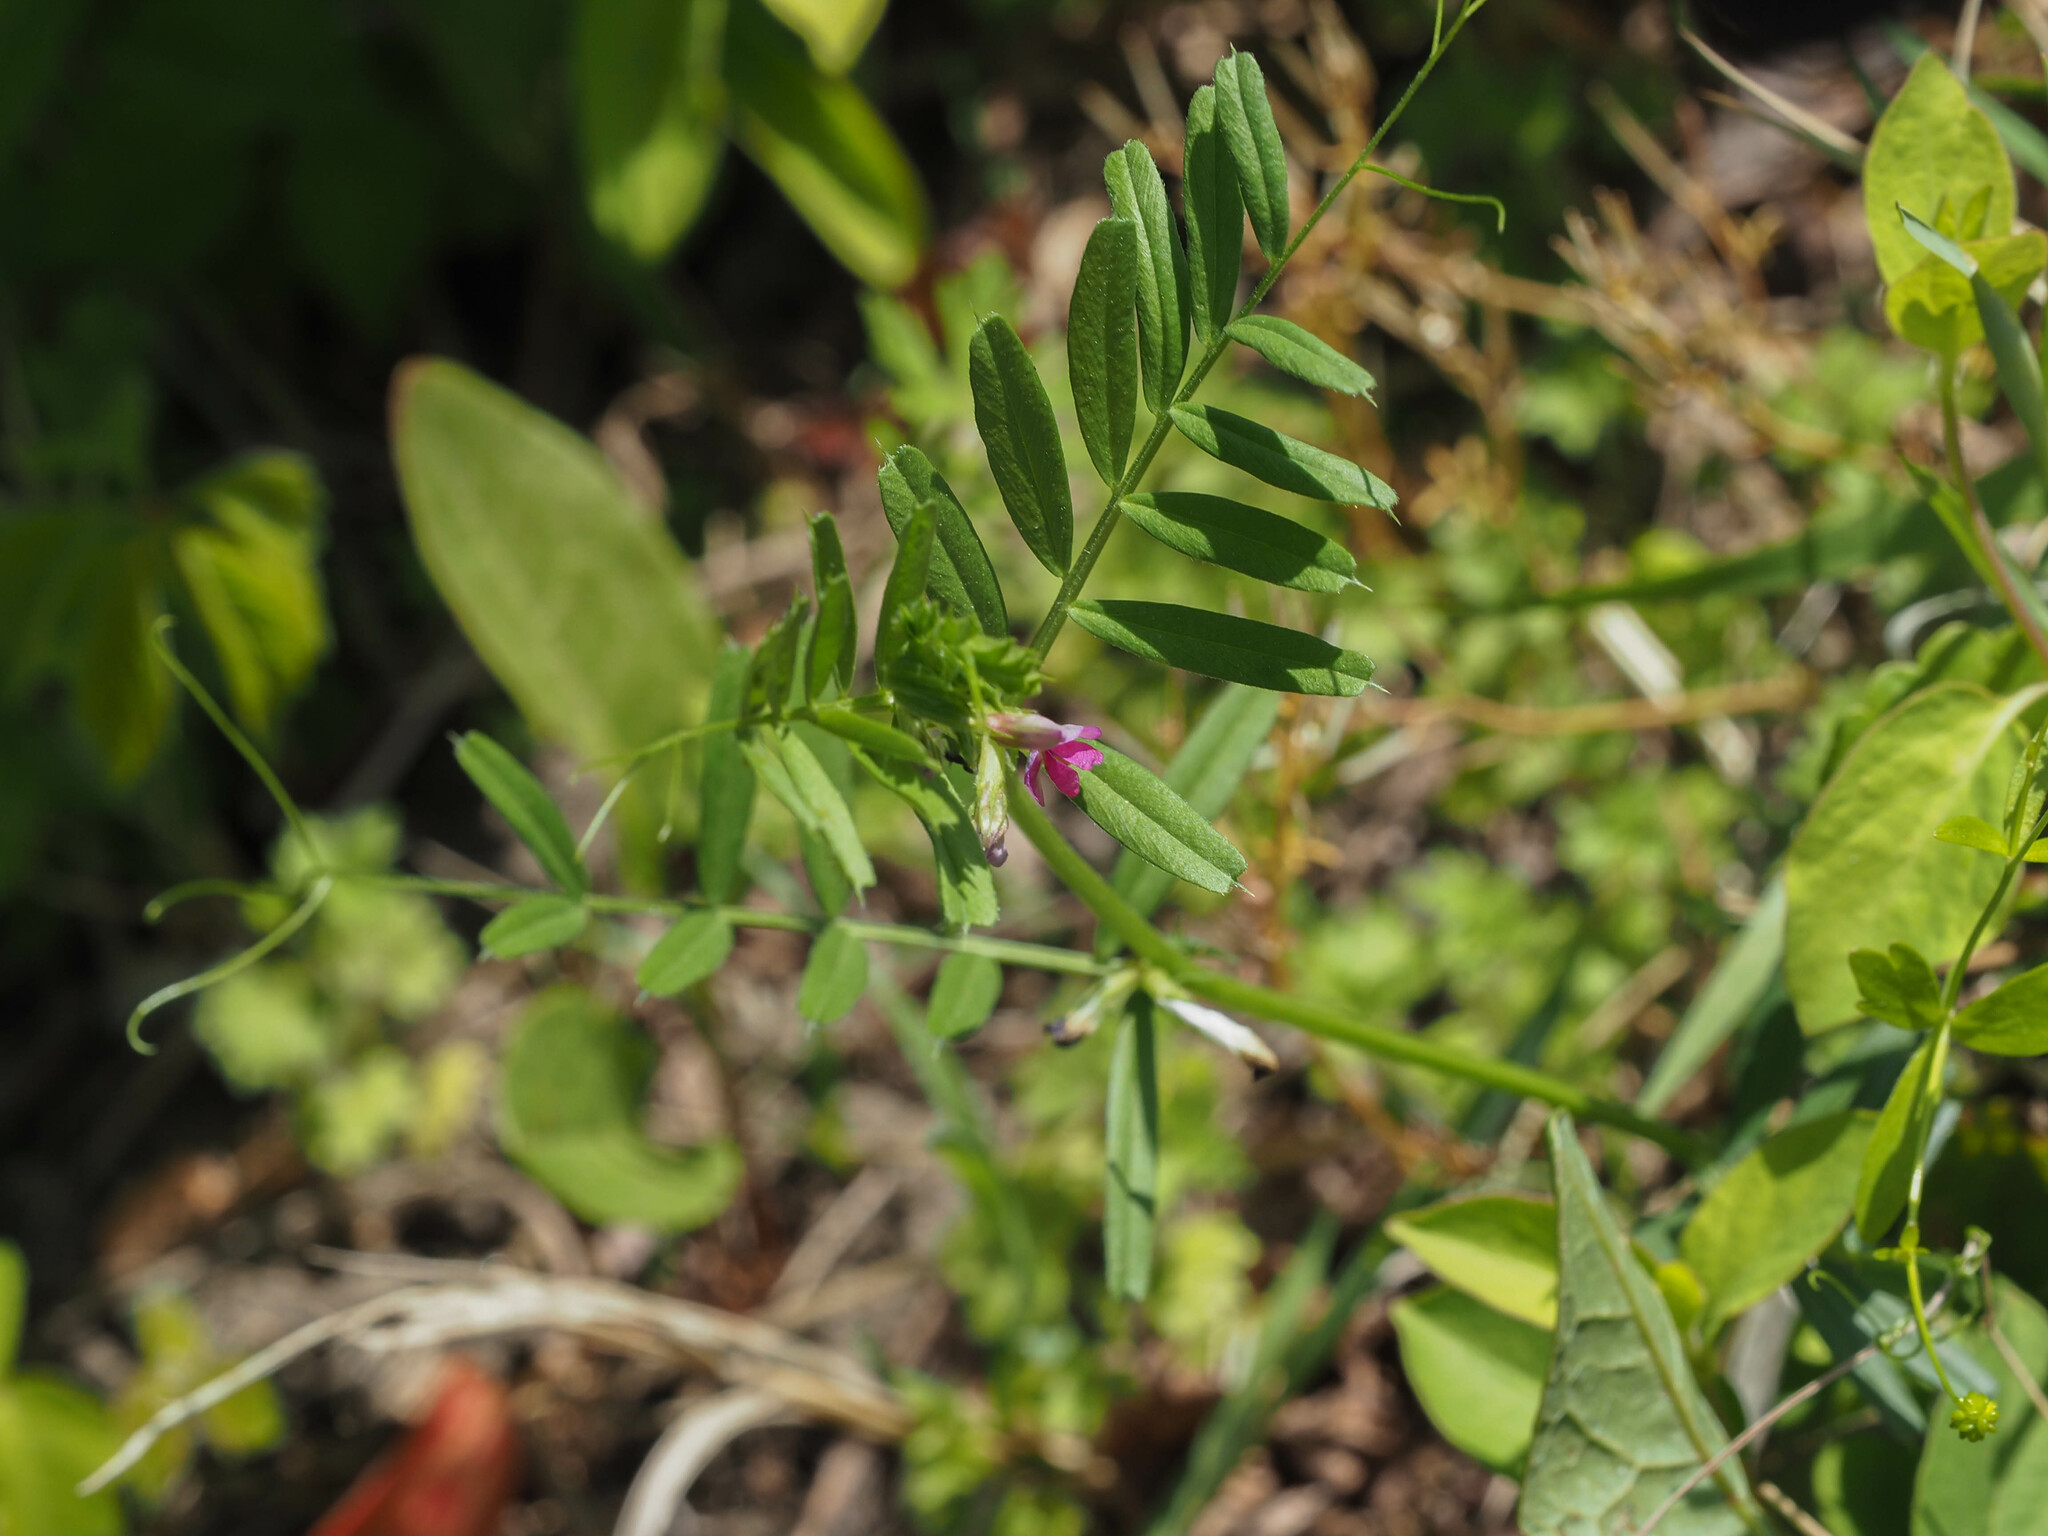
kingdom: Plantae
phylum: Tracheophyta
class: Magnoliopsida
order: Fabales
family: Fabaceae
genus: Vicia
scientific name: Vicia sativa
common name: Garden vetch
